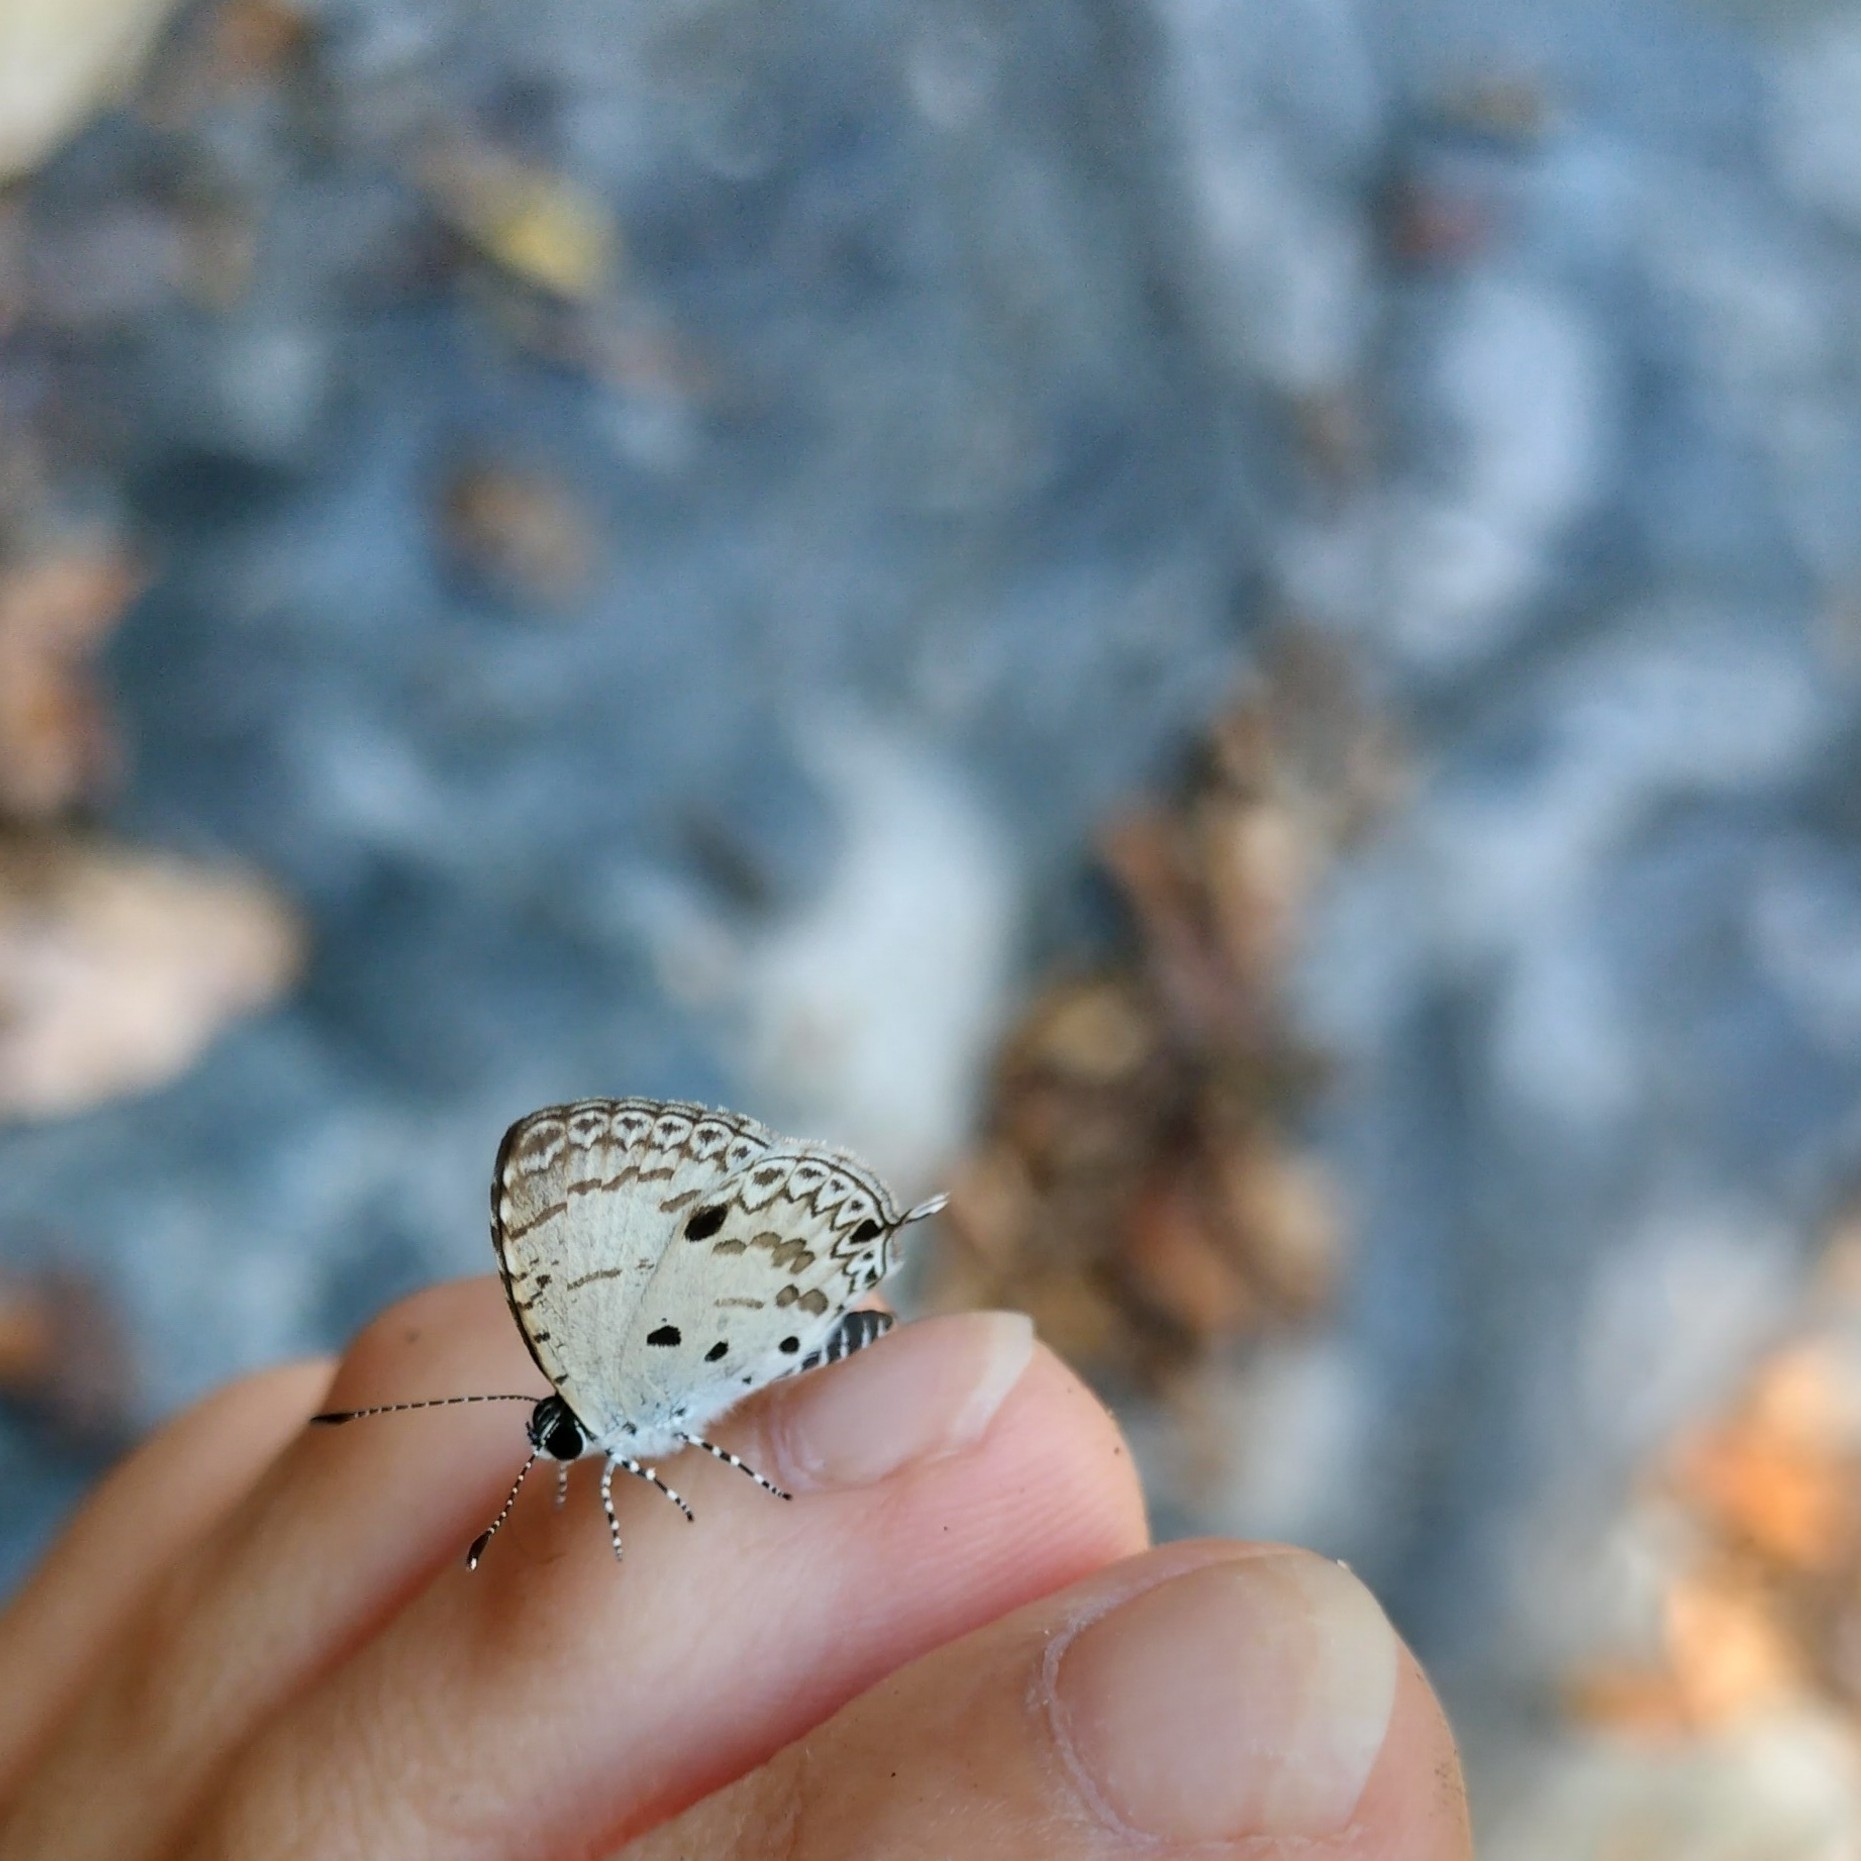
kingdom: Animalia
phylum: Arthropoda
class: Insecta
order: Lepidoptera
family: Lycaenidae
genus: Megisba
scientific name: Megisba malaya
